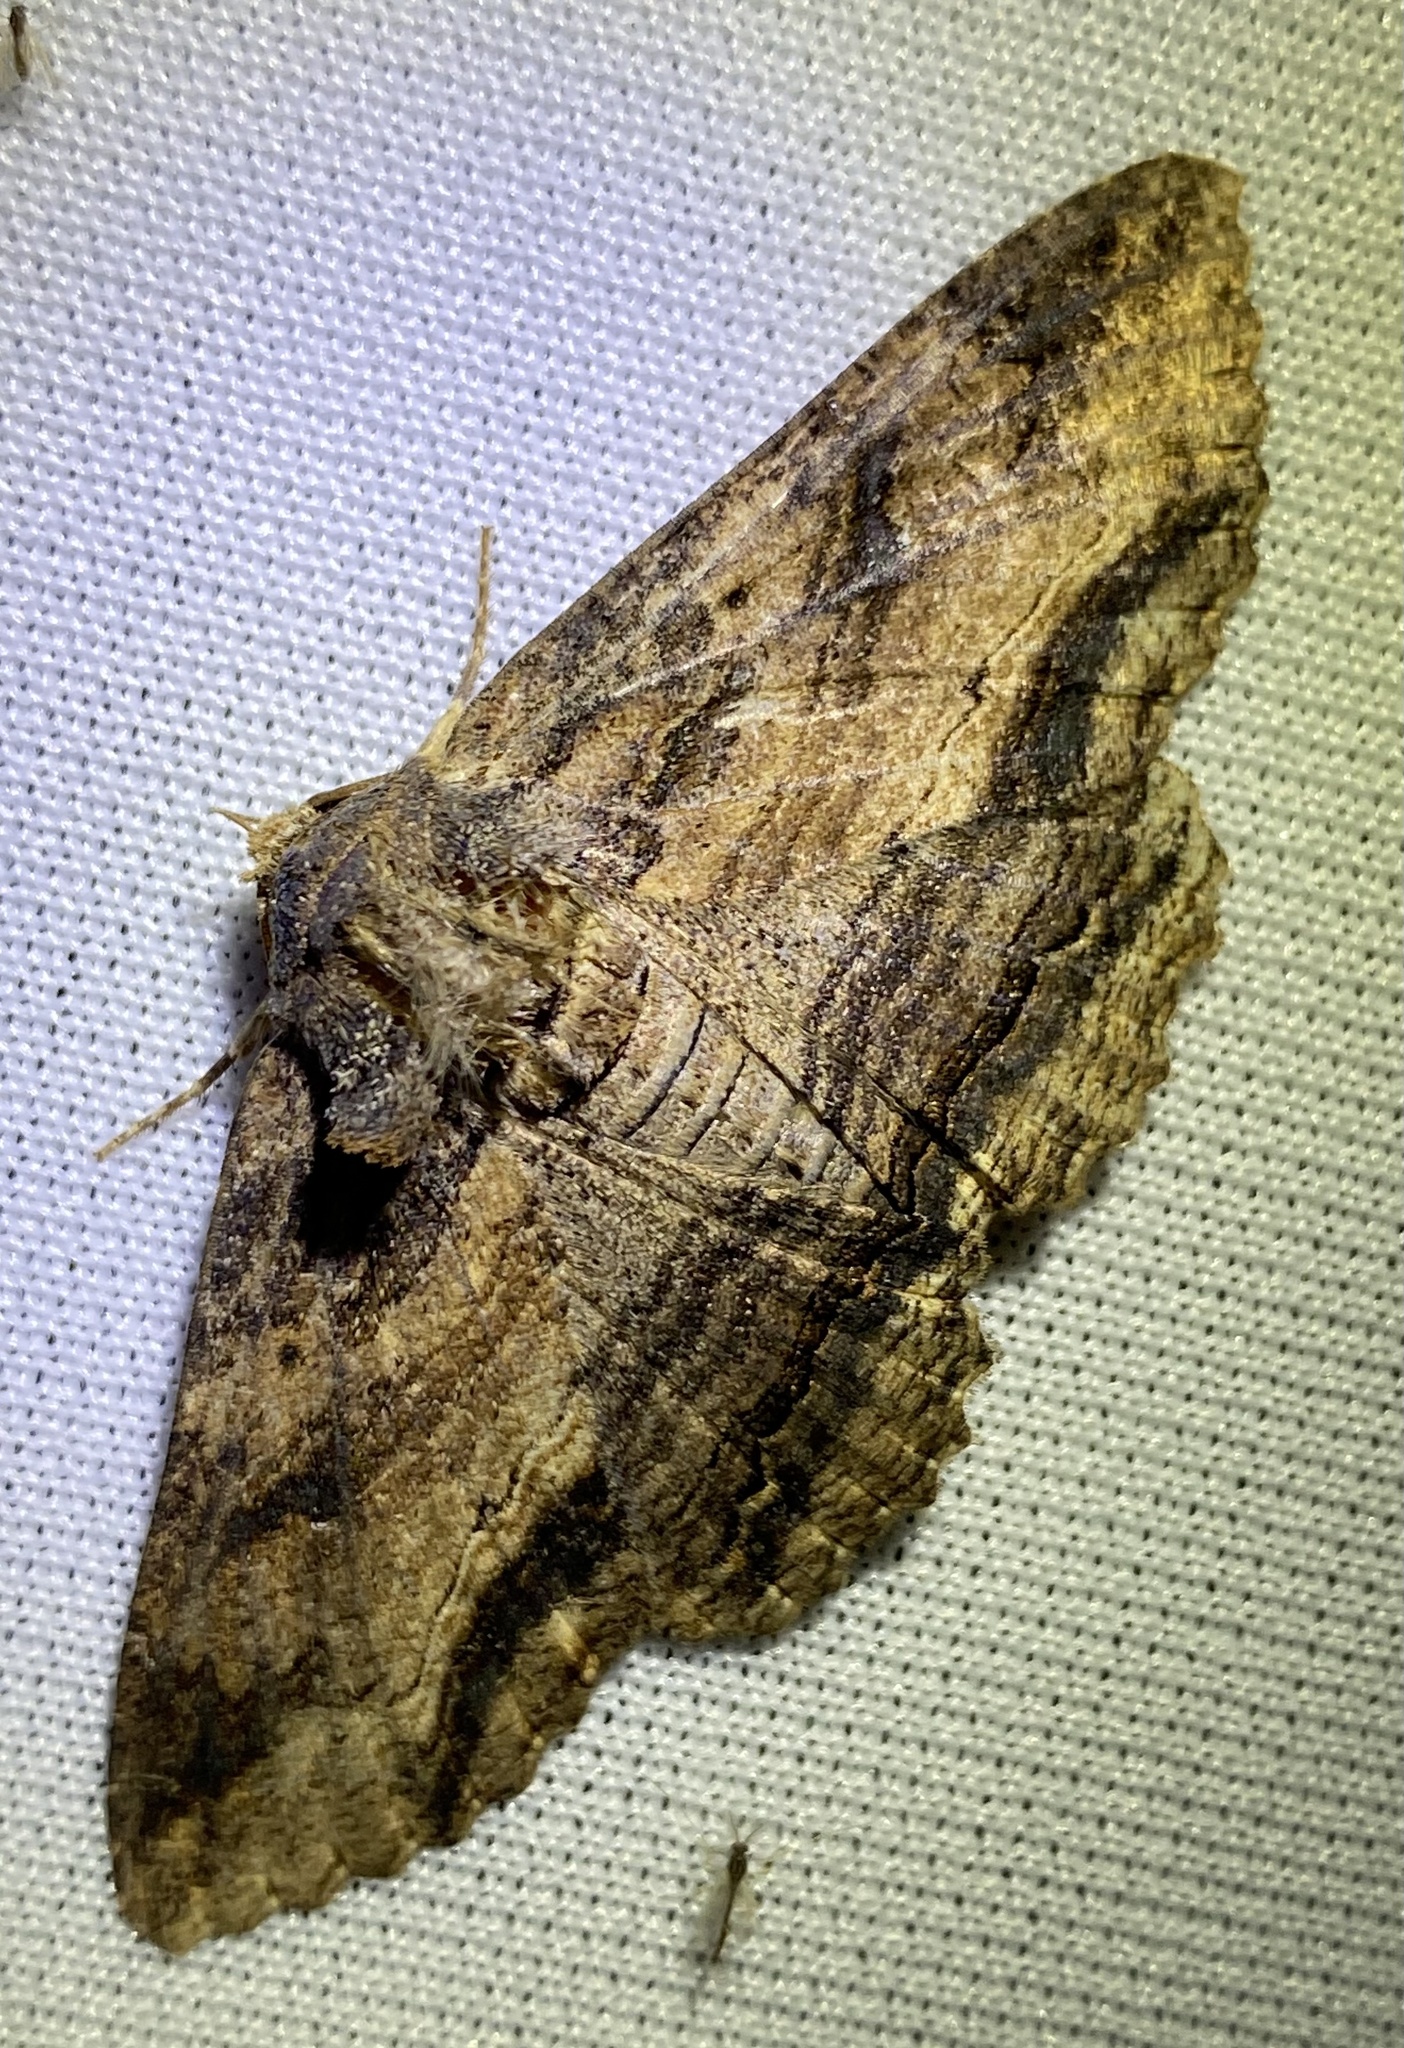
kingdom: Animalia
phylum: Arthropoda
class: Insecta
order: Lepidoptera
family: Erebidae
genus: Zale
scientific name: Zale lunata
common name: Lunate zale moth
